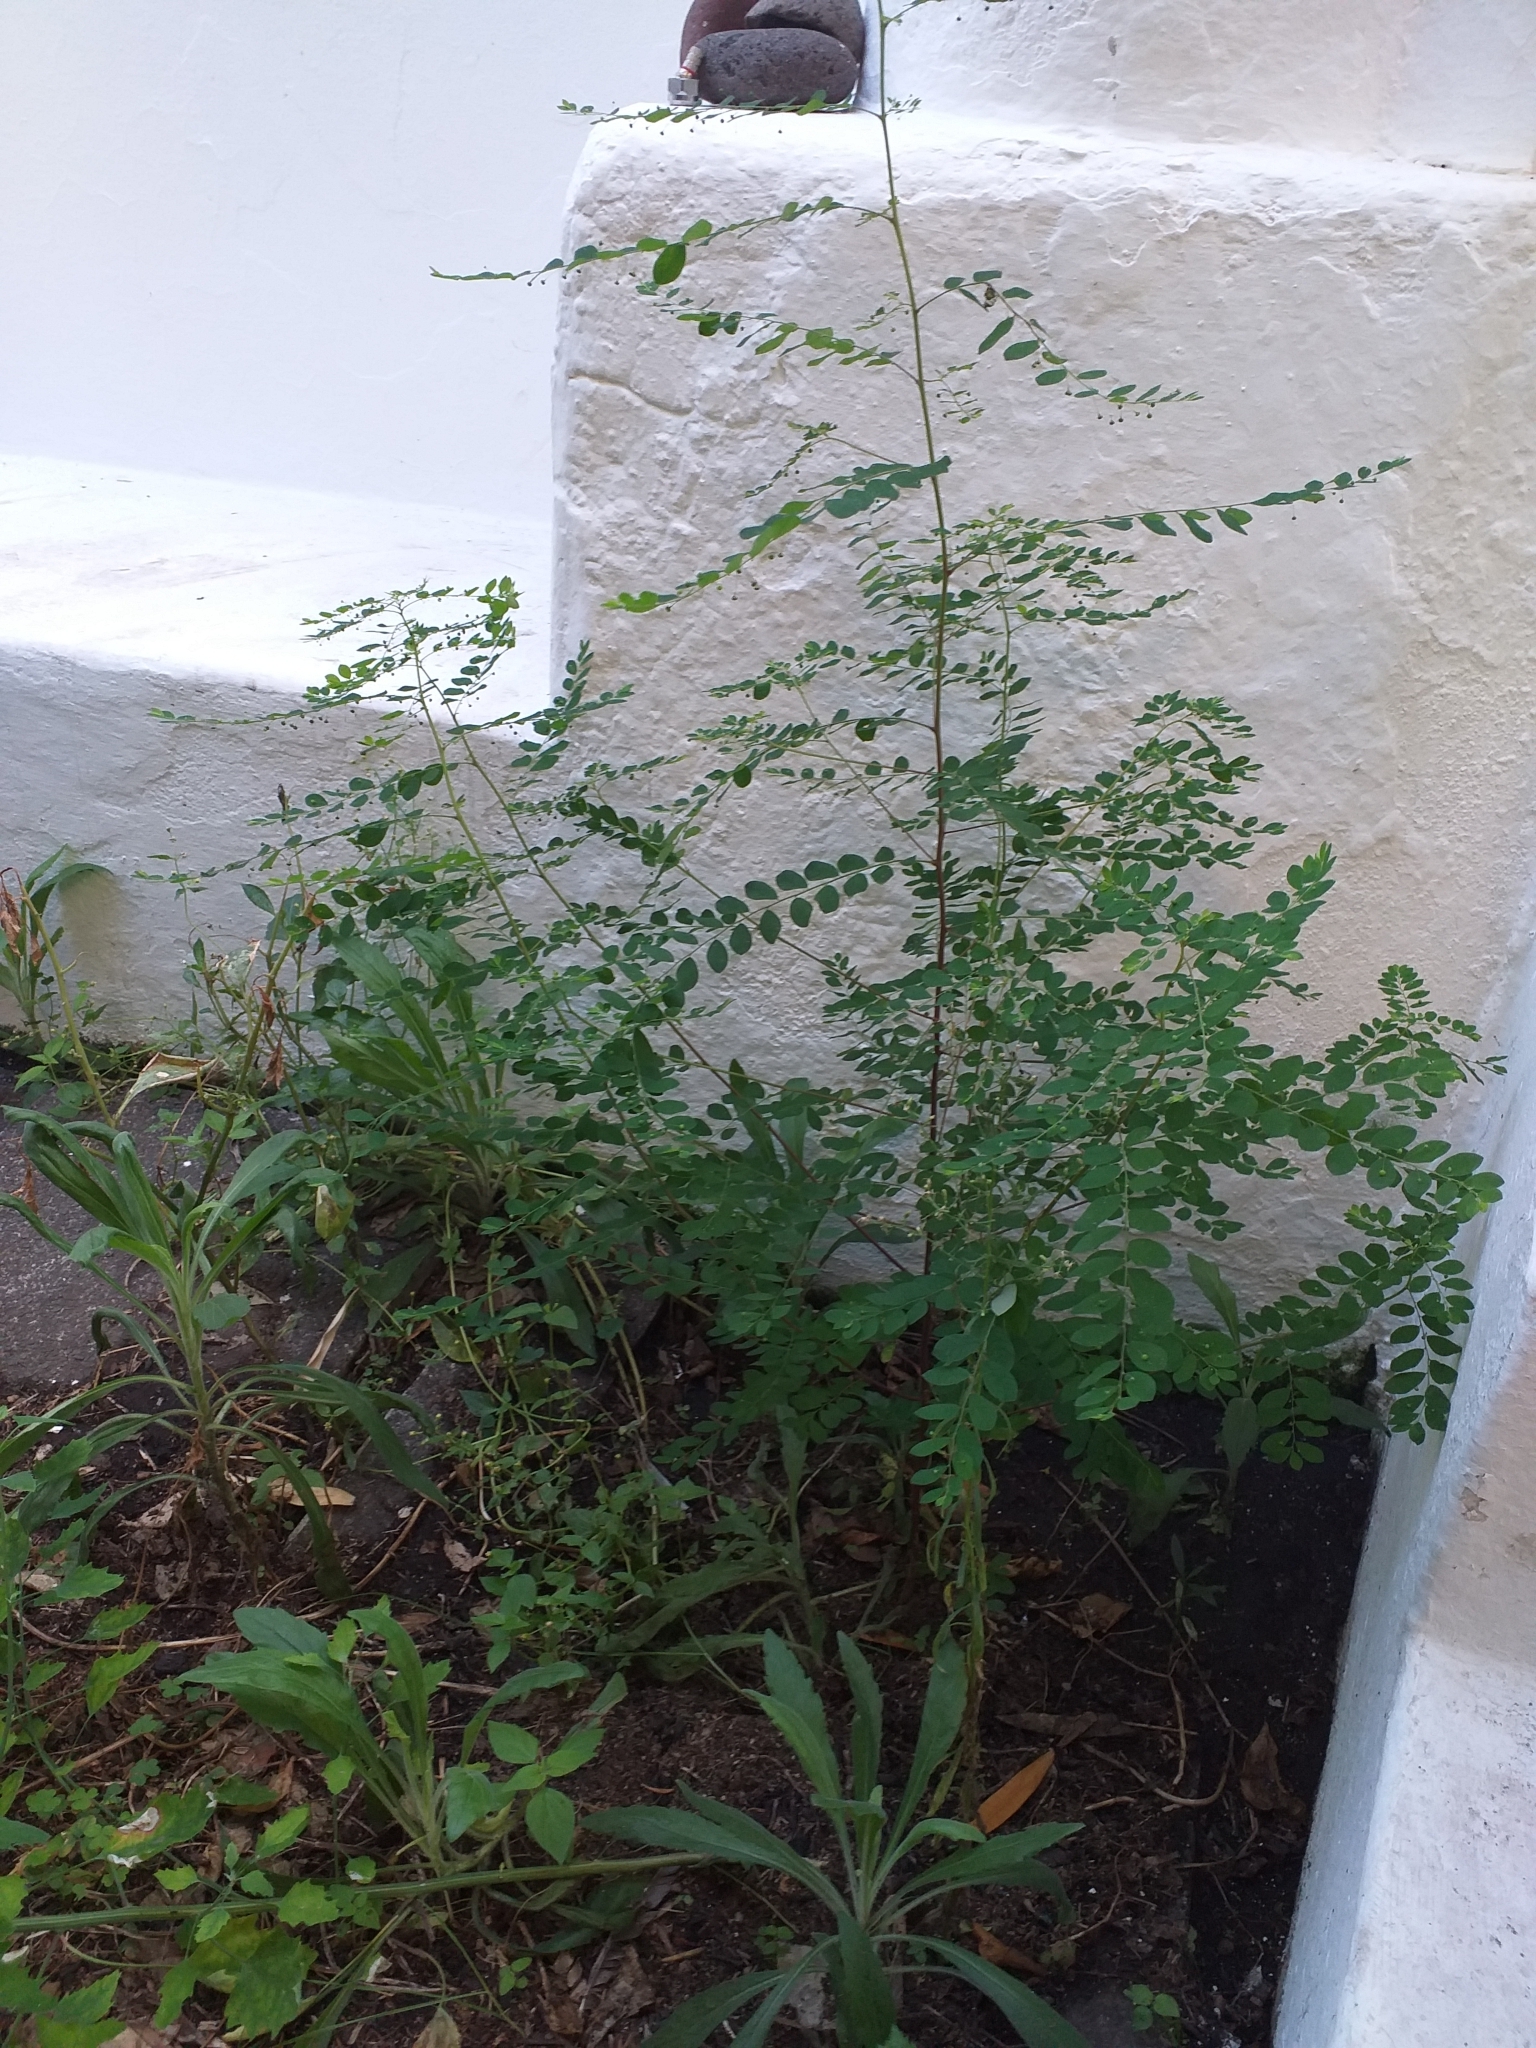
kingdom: Plantae
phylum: Tracheophyta
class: Magnoliopsida
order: Malpighiales
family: Phyllanthaceae
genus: Phyllanthus
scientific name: Phyllanthus tenellus
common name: Mascarene island leaf-flower
